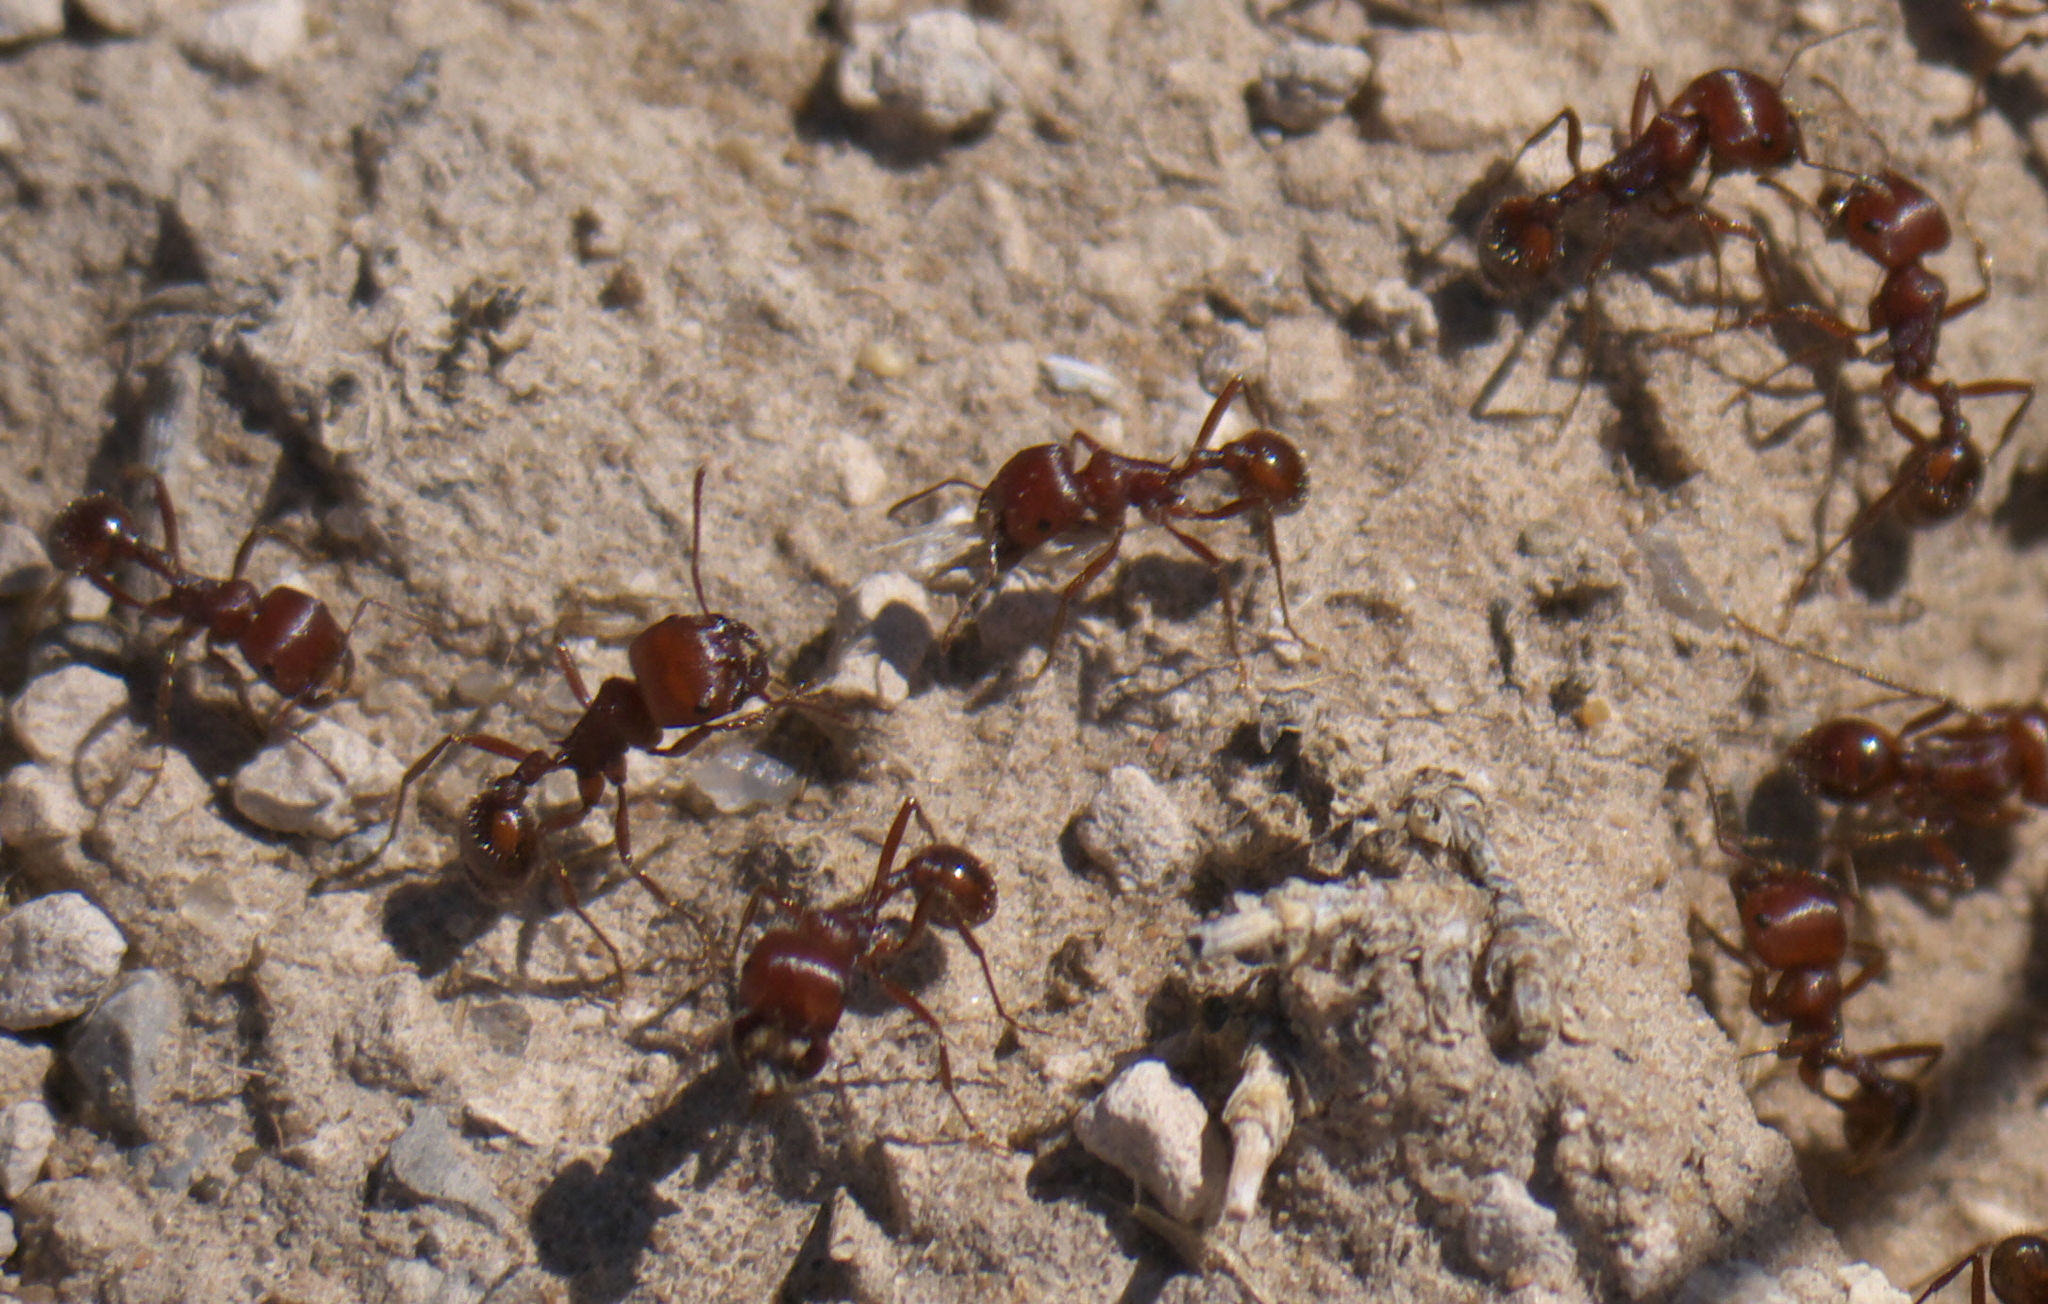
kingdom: Animalia
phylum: Arthropoda
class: Insecta
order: Hymenoptera
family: Formicidae
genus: Pogonomyrmex
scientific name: Pogonomyrmex barbatus
